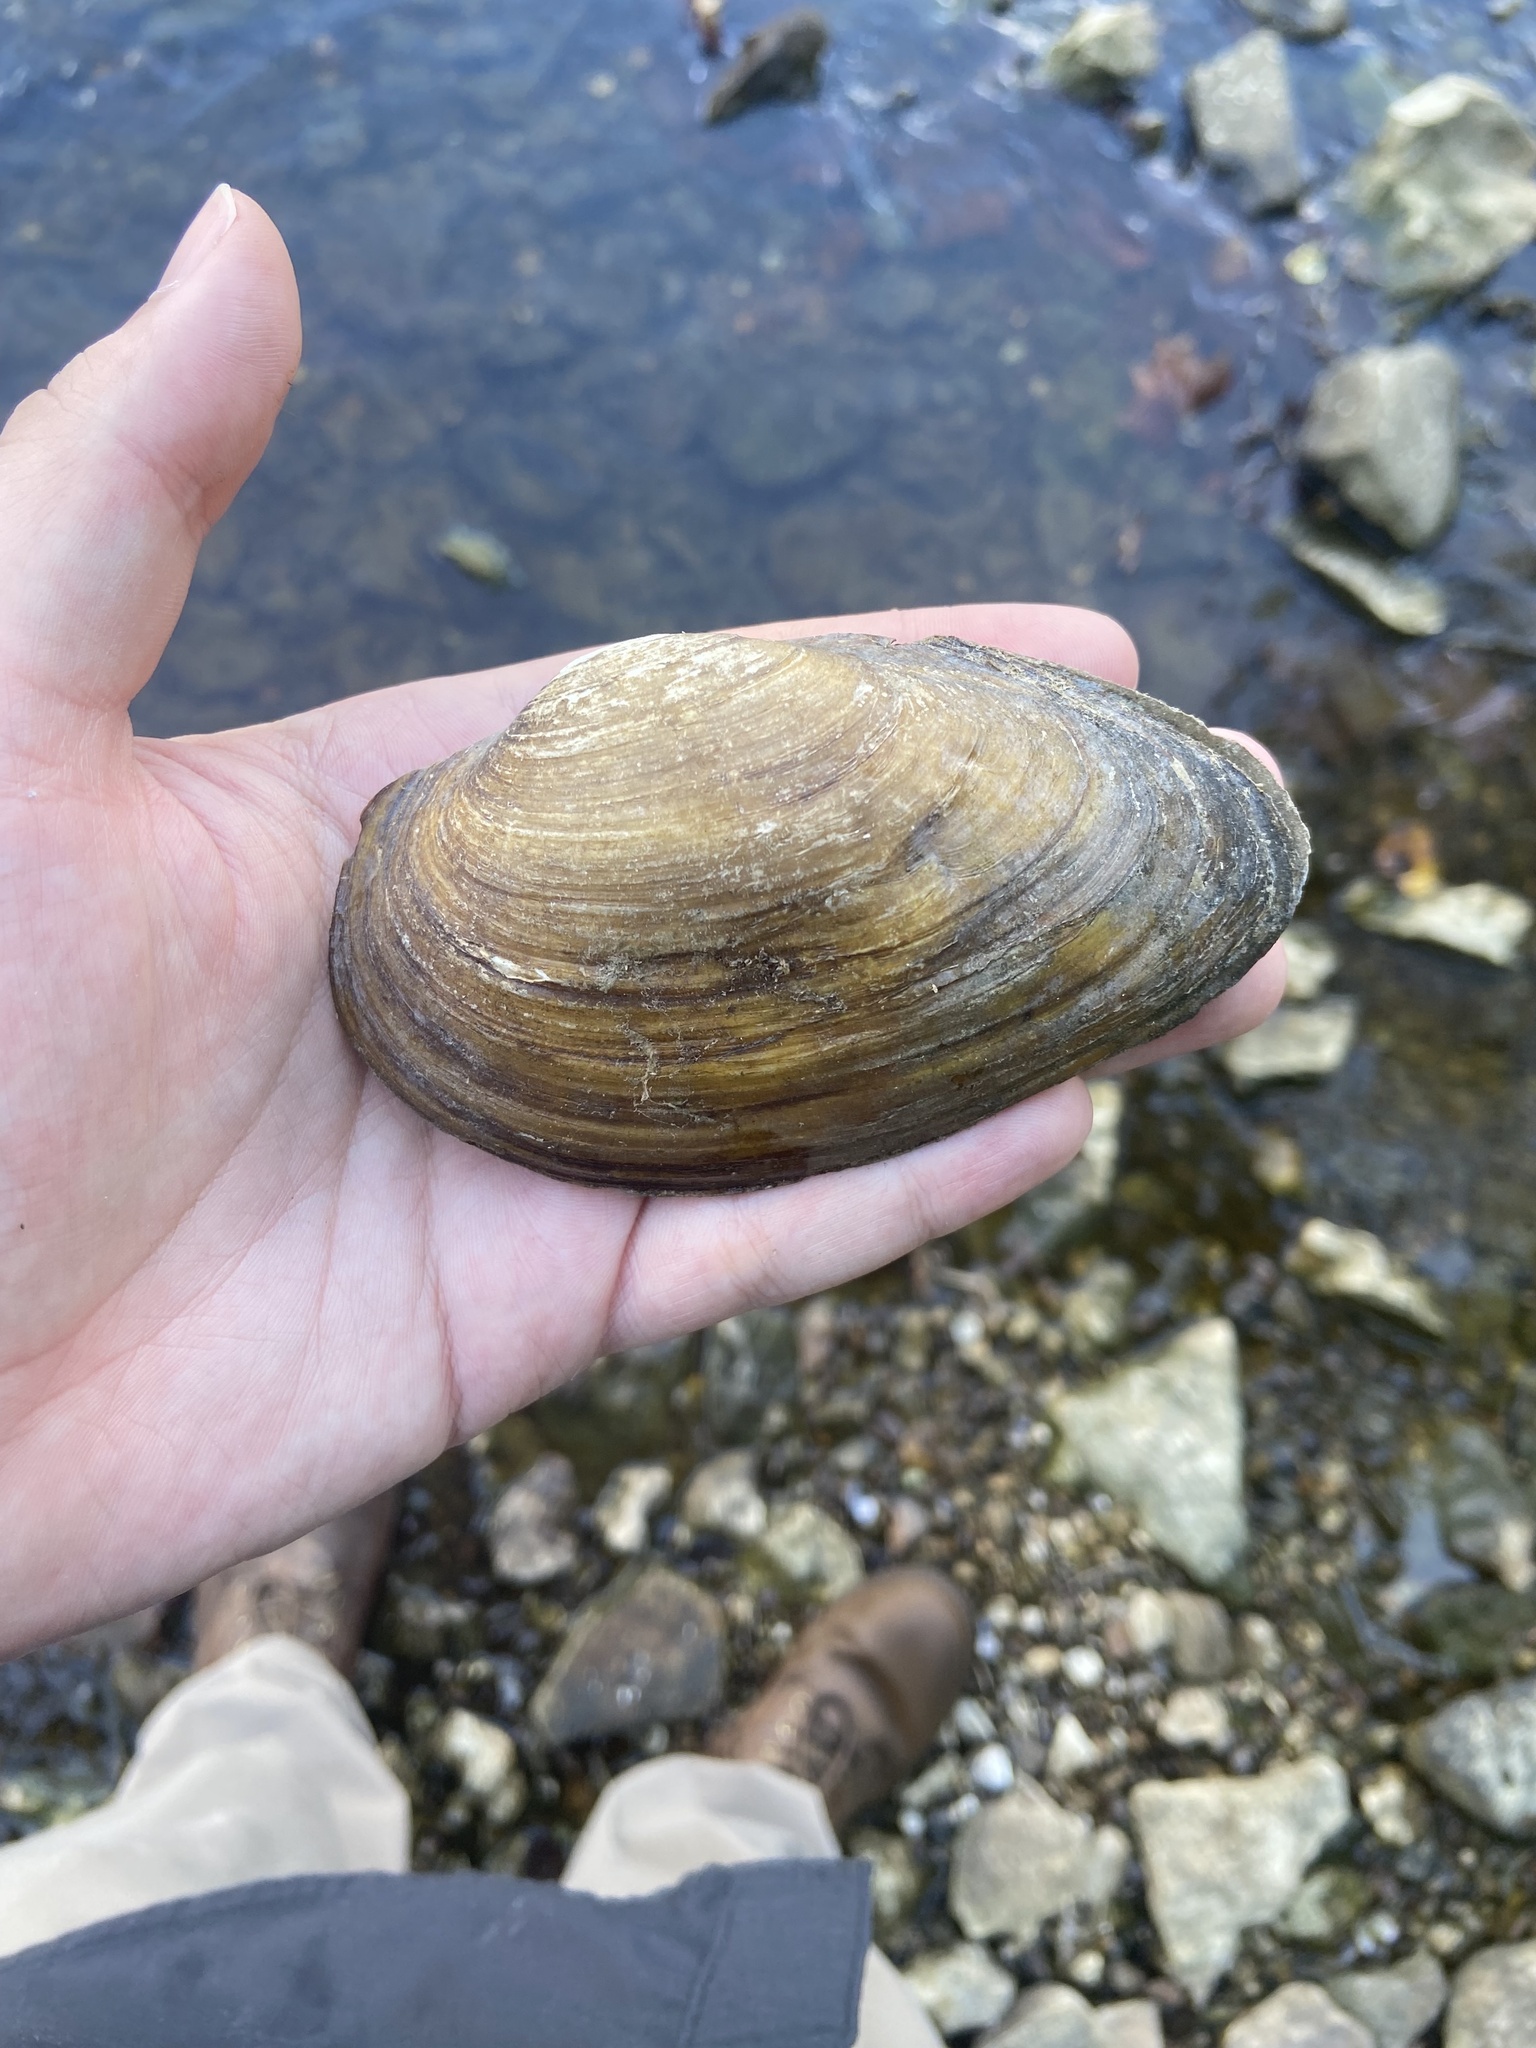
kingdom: Animalia
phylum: Mollusca
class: Bivalvia
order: Unionida
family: Unionidae
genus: Pyganodon
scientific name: Pyganodon grandis
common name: Giant floater
